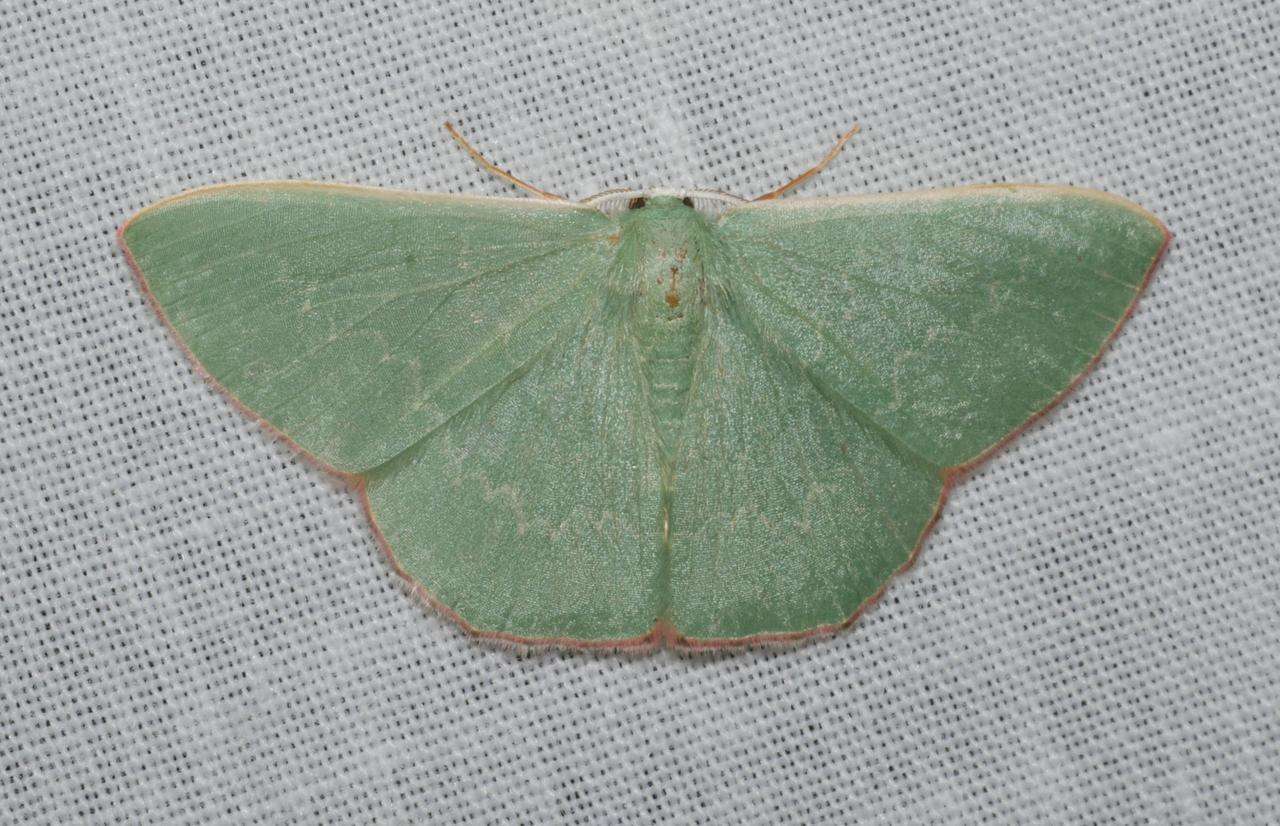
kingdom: Animalia
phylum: Arthropoda
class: Insecta
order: Lepidoptera
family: Geometridae
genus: Prasinocyma
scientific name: Prasinocyma semicrocea
